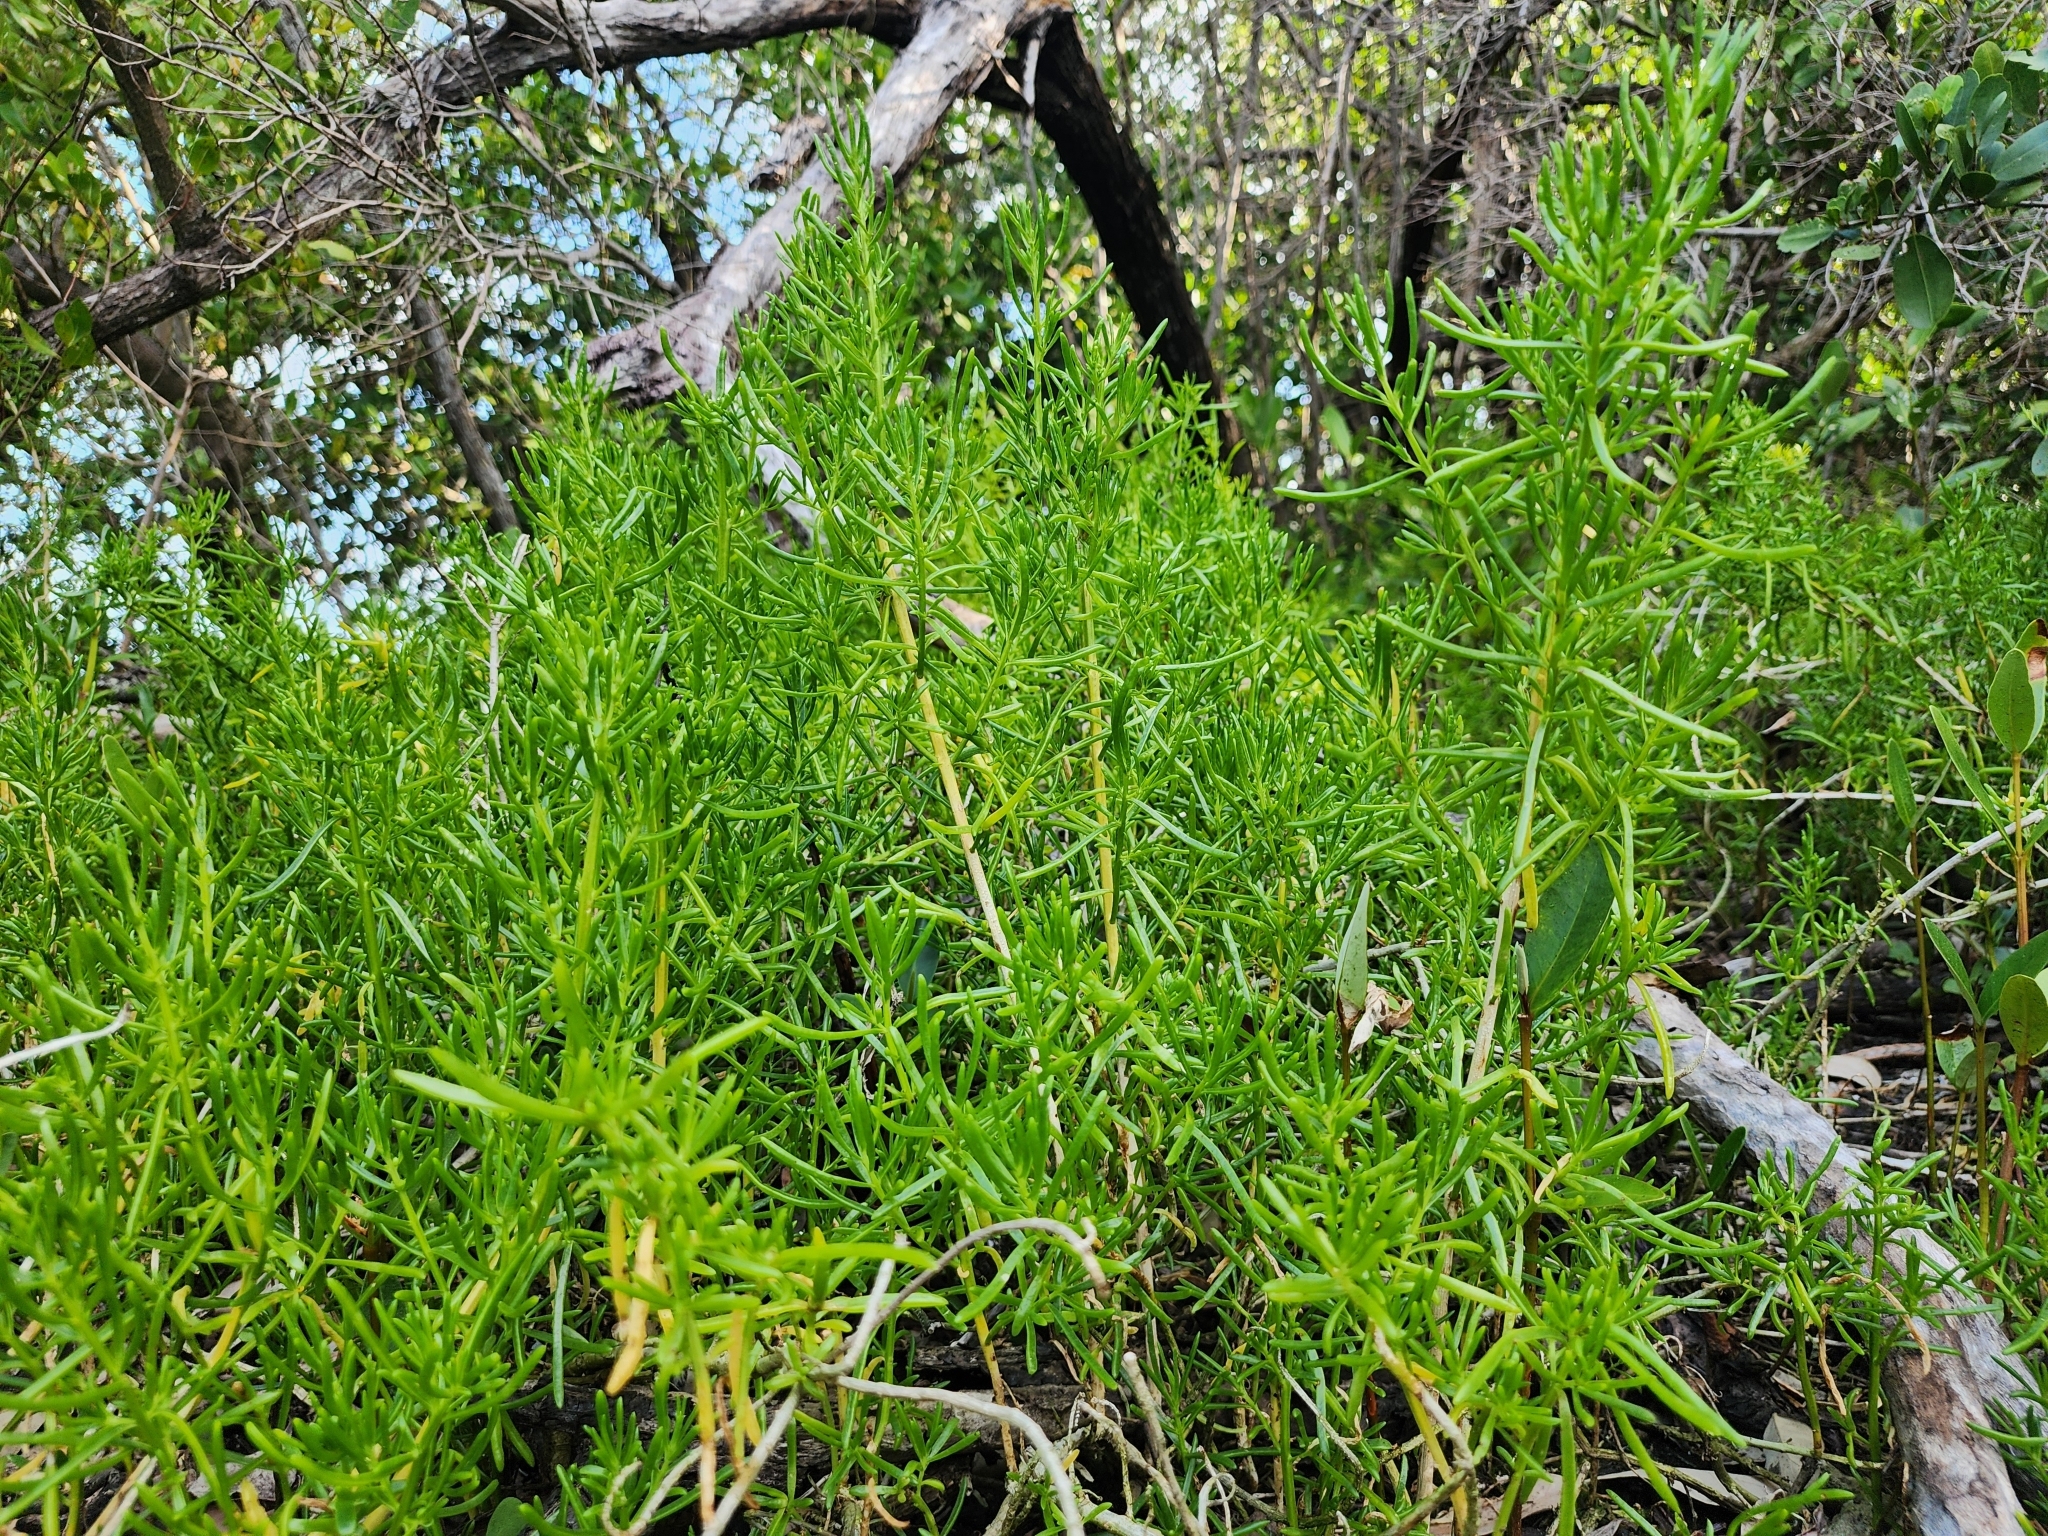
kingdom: Plantae
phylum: Tracheophyta
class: Magnoliopsida
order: Brassicales
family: Bataceae
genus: Batis
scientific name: Batis maritima
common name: Turtleweed
